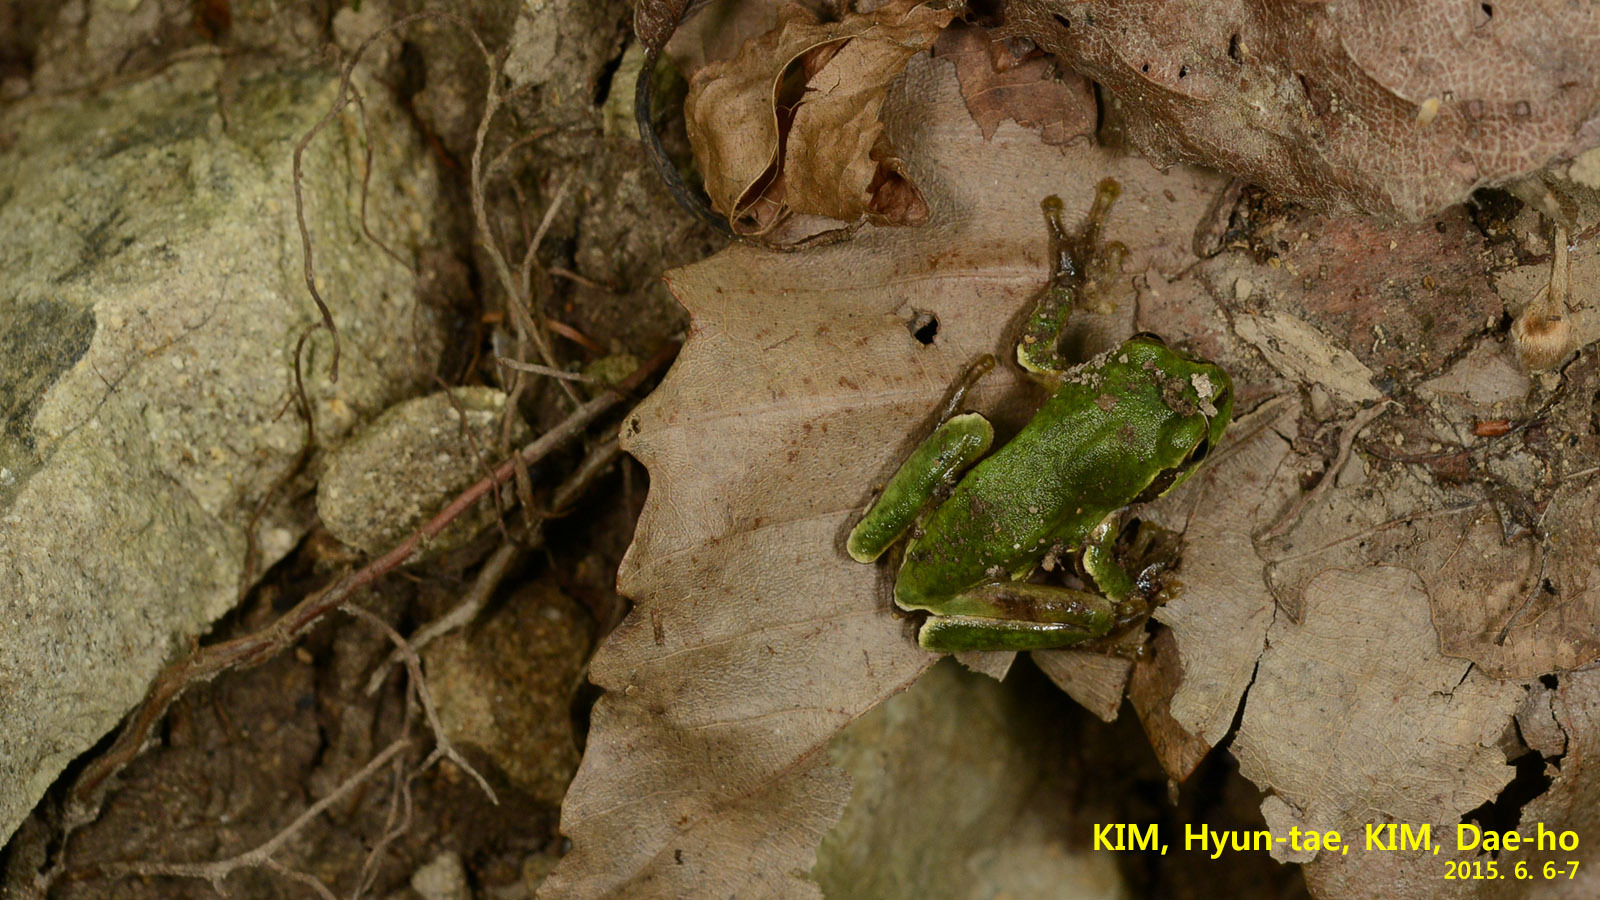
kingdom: Animalia
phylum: Chordata
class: Amphibia
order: Anura
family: Hylidae
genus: Dryophytes
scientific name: Dryophytes japonicus
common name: Japanese treefrog
